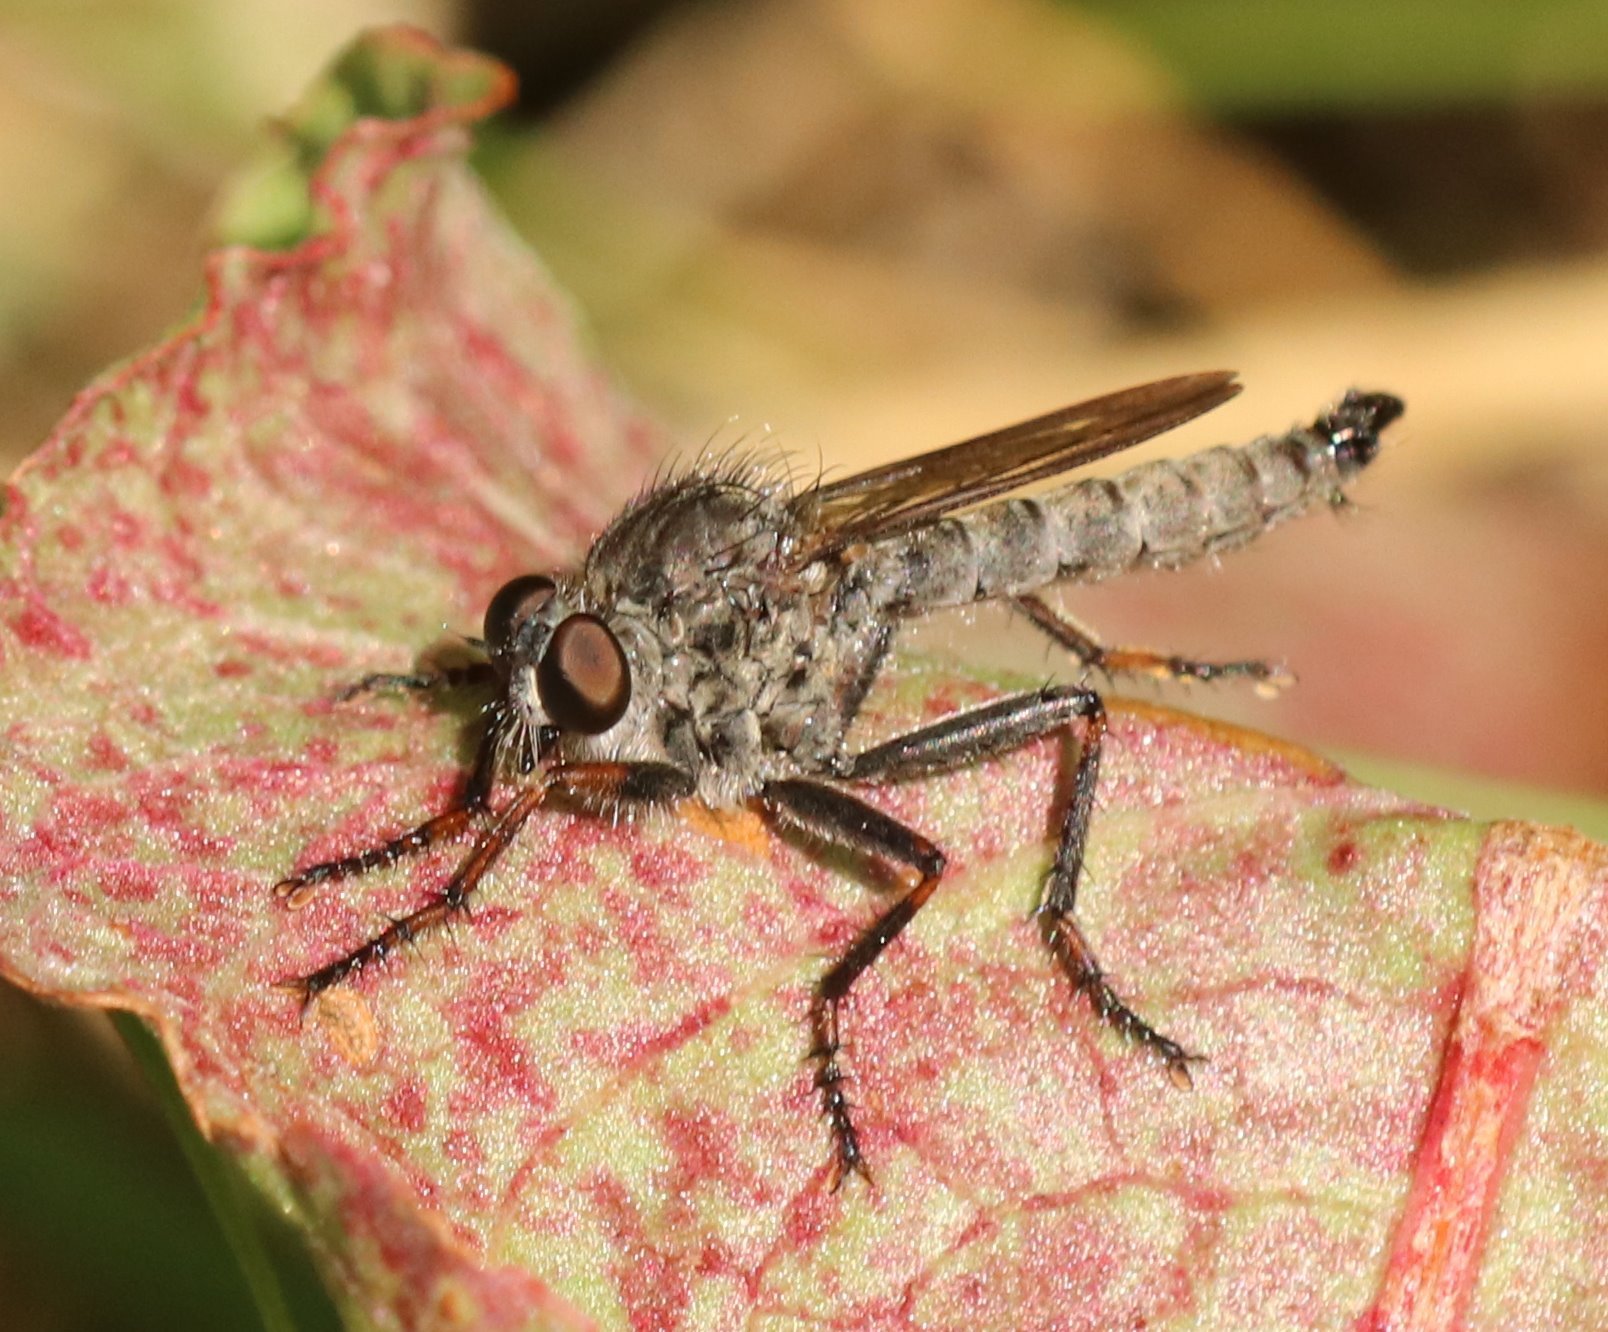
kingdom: Animalia
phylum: Arthropoda
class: Insecta
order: Diptera
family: Asilidae
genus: Machimus
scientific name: Machimus atricapillus
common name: Kite-tailed robberfly
